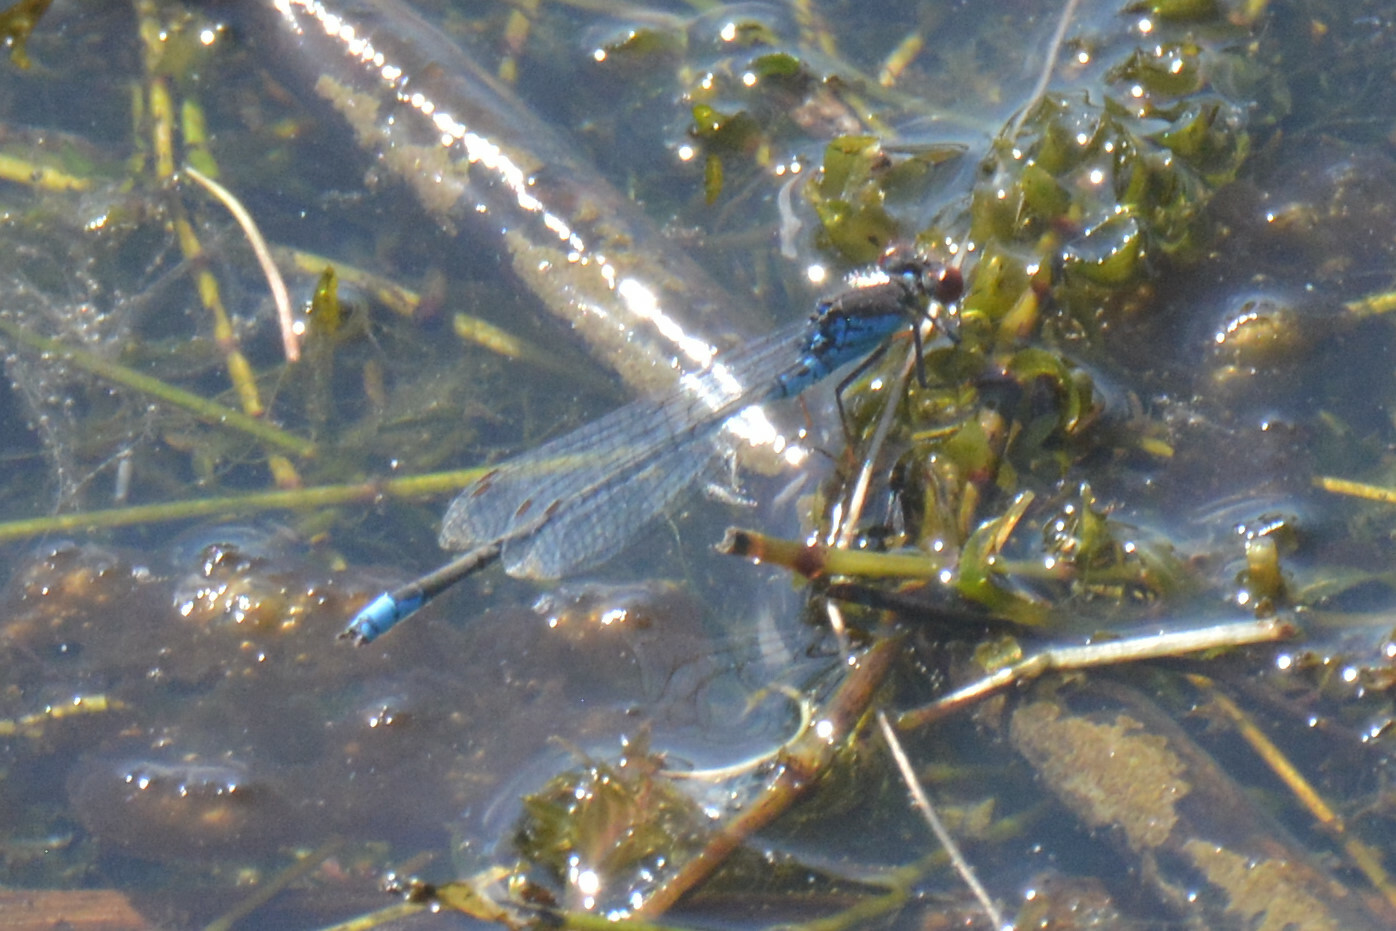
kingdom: Animalia
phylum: Arthropoda
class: Insecta
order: Odonata
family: Coenagrionidae
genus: Erythromma
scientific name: Erythromma viridulum
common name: Small red-eyed damselfly
